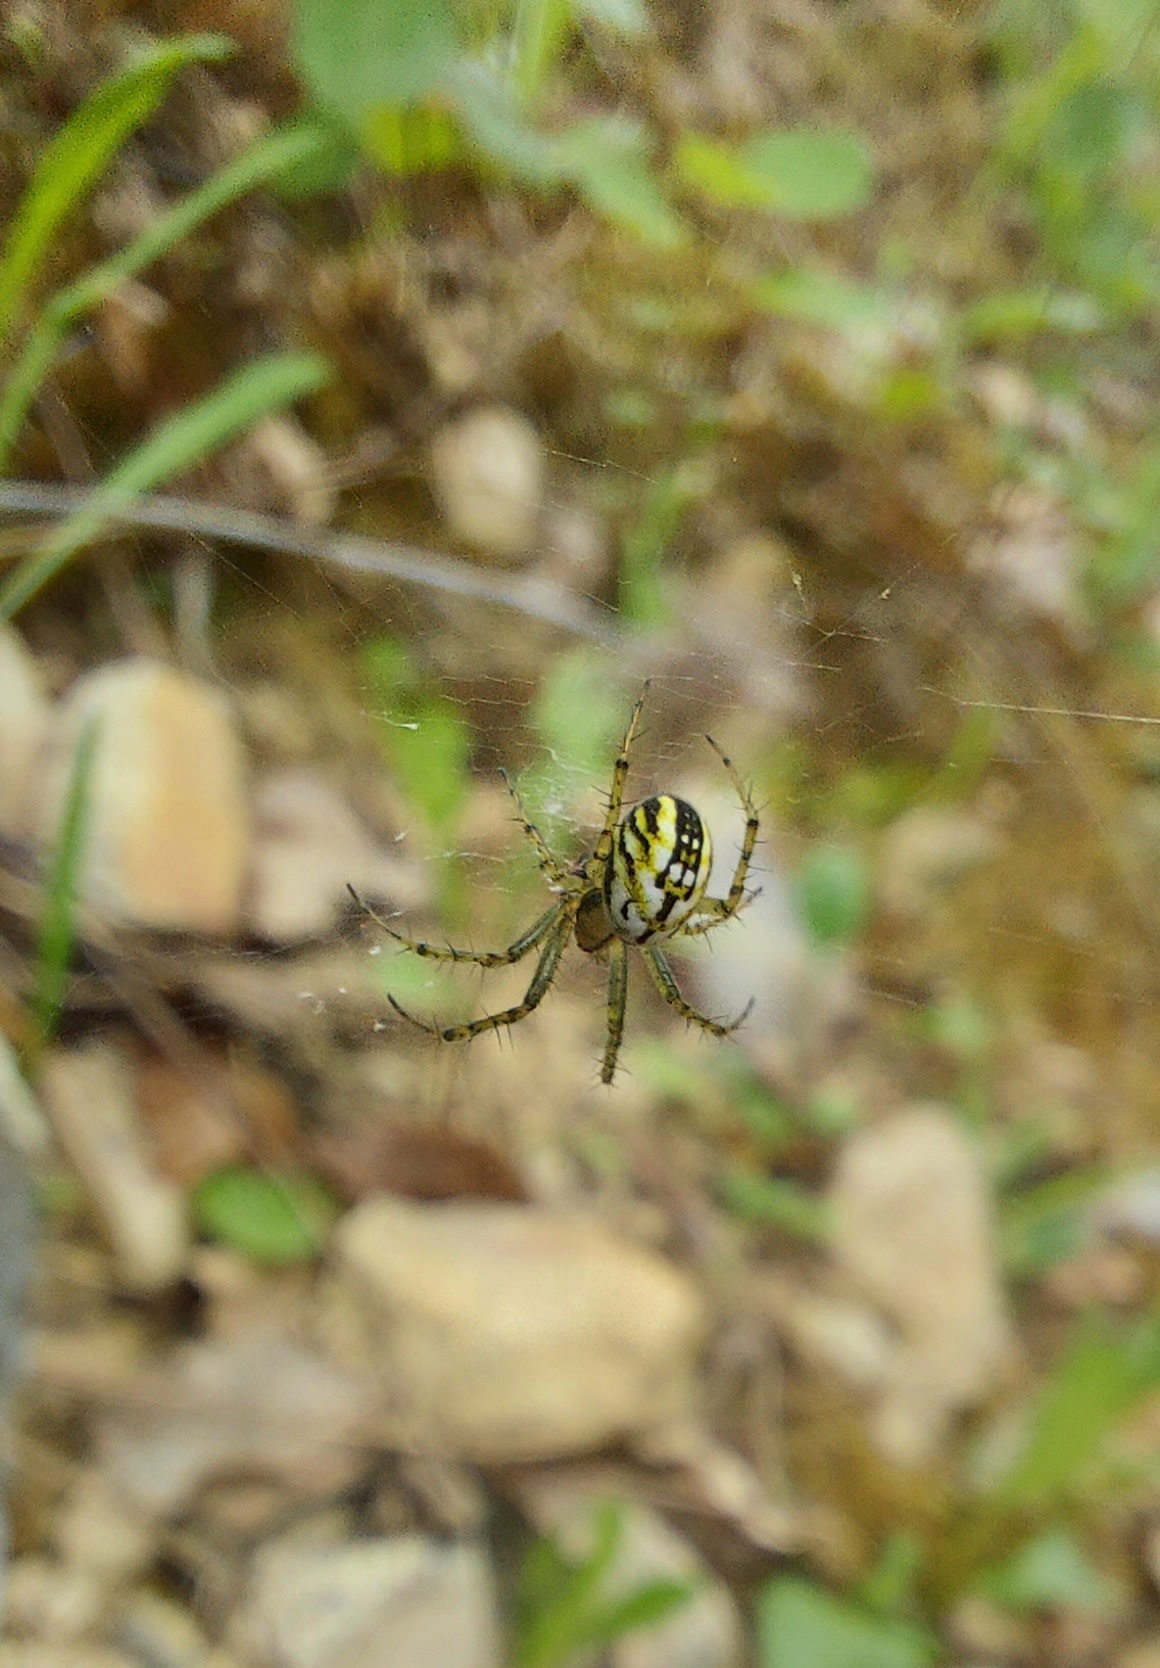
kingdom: Animalia
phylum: Arthropoda
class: Arachnida
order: Araneae
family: Araneidae
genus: Mangora
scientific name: Mangora acalypha
